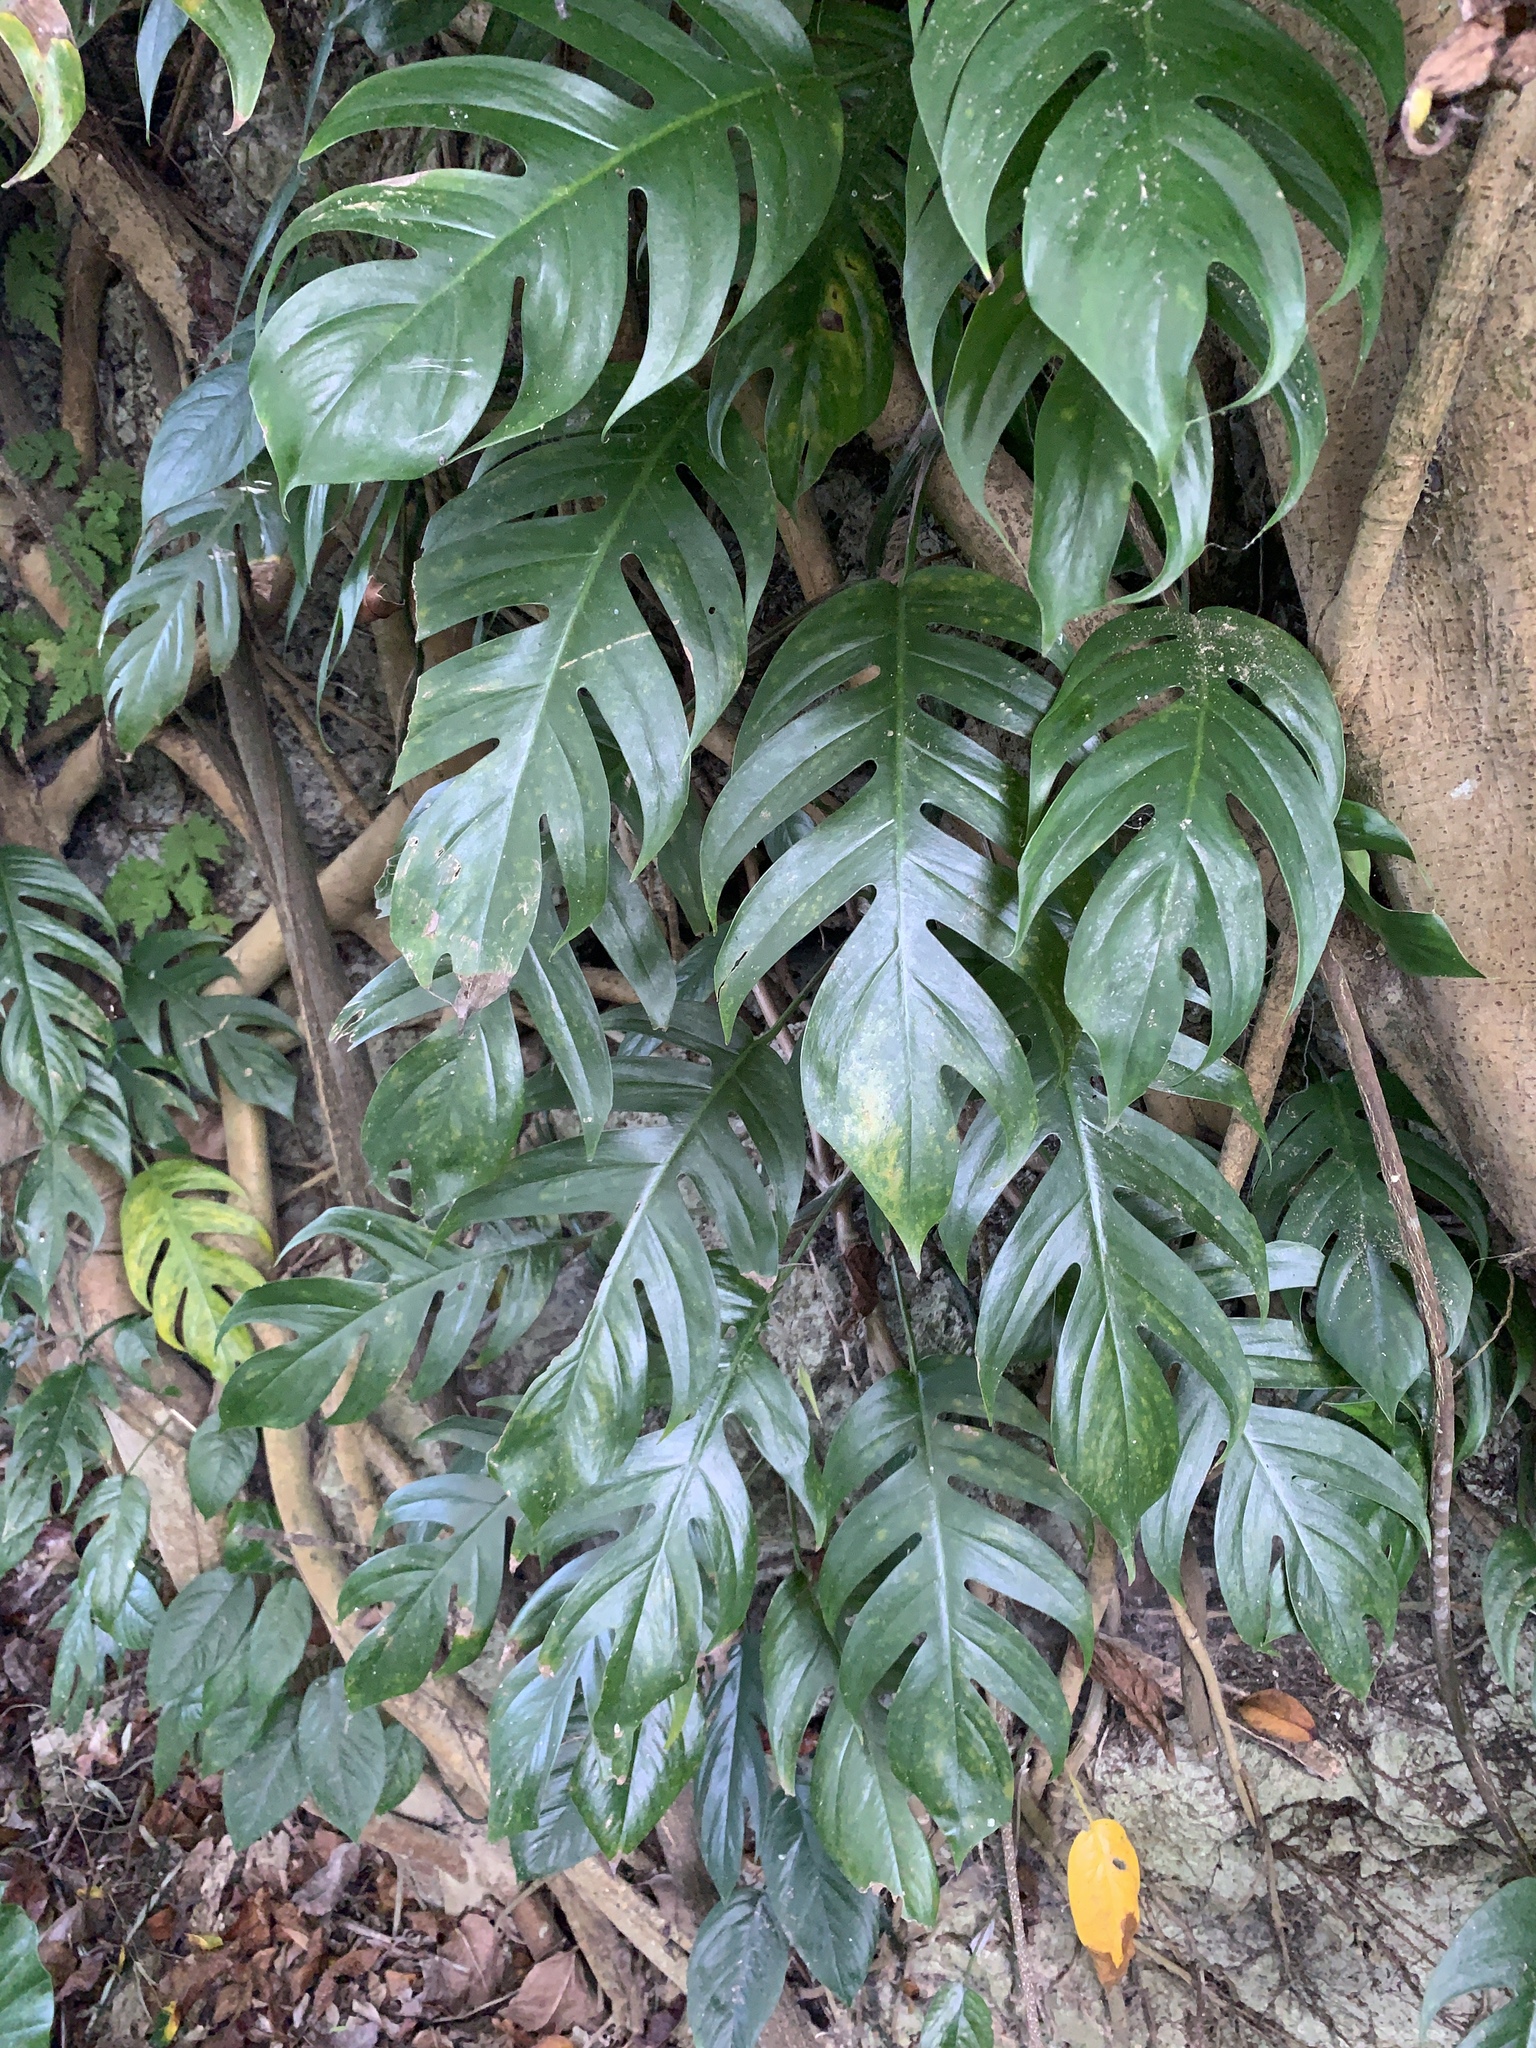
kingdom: Plantae
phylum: Tracheophyta
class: Liliopsida
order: Alismatales
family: Araceae
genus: Epipremnum
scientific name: Epipremnum pinnatum
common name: Centipede tongavine
